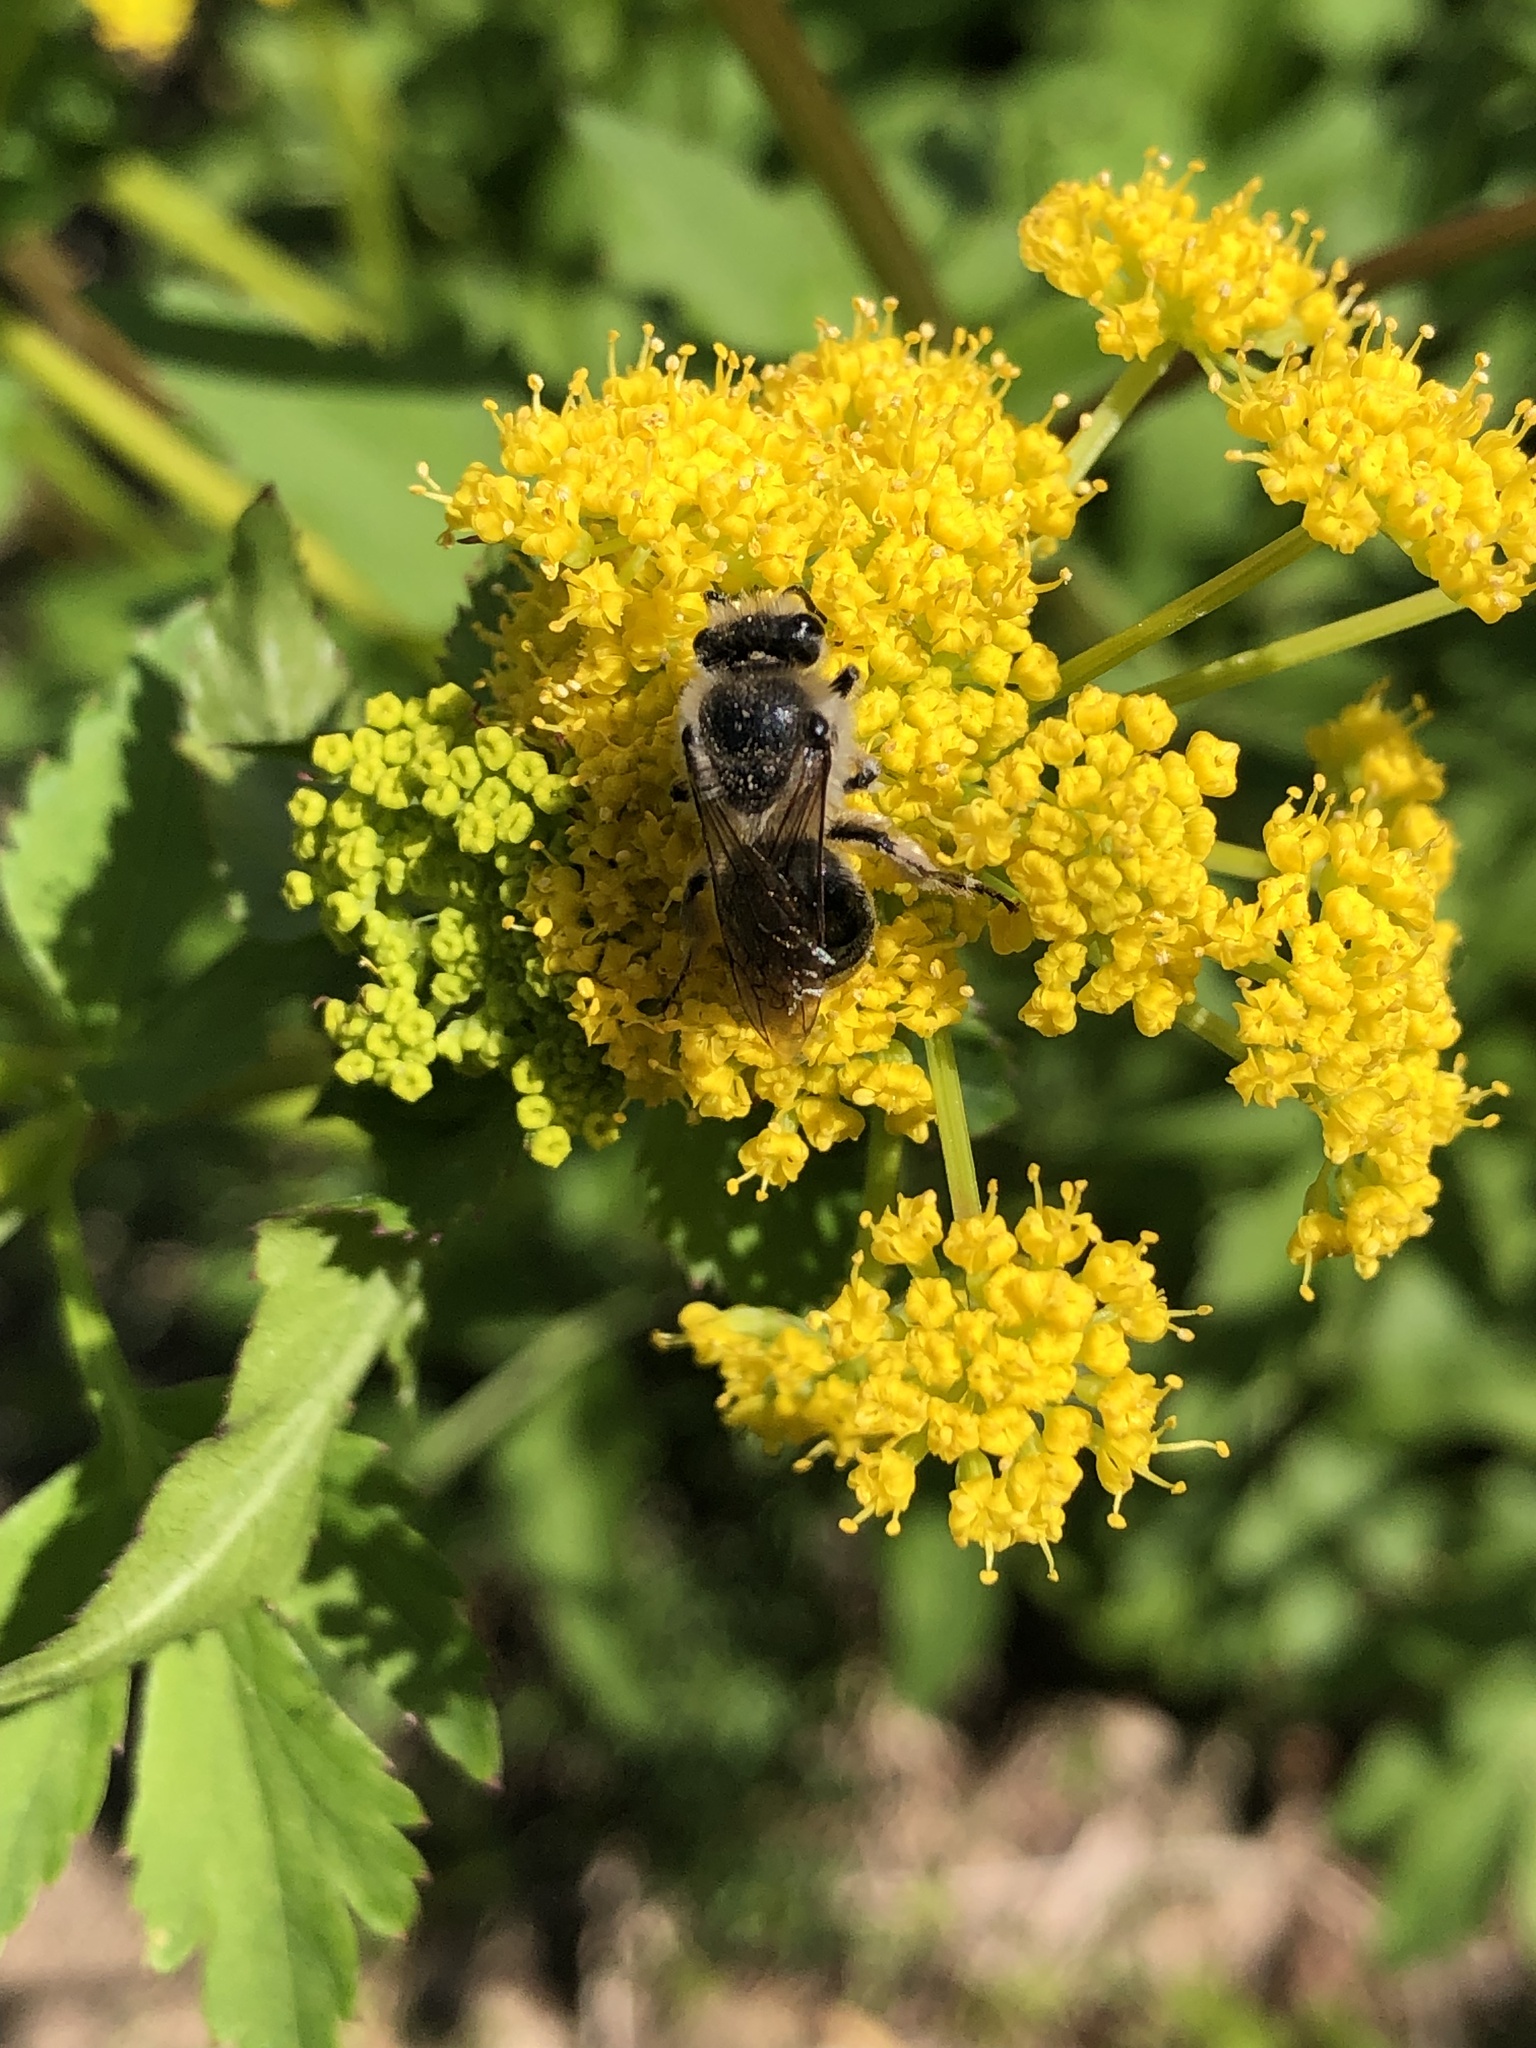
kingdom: Animalia
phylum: Arthropoda
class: Insecta
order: Hymenoptera
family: Colletidae
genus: Colletes
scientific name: Colletes inaequalis
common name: Unequal cellophane bee
